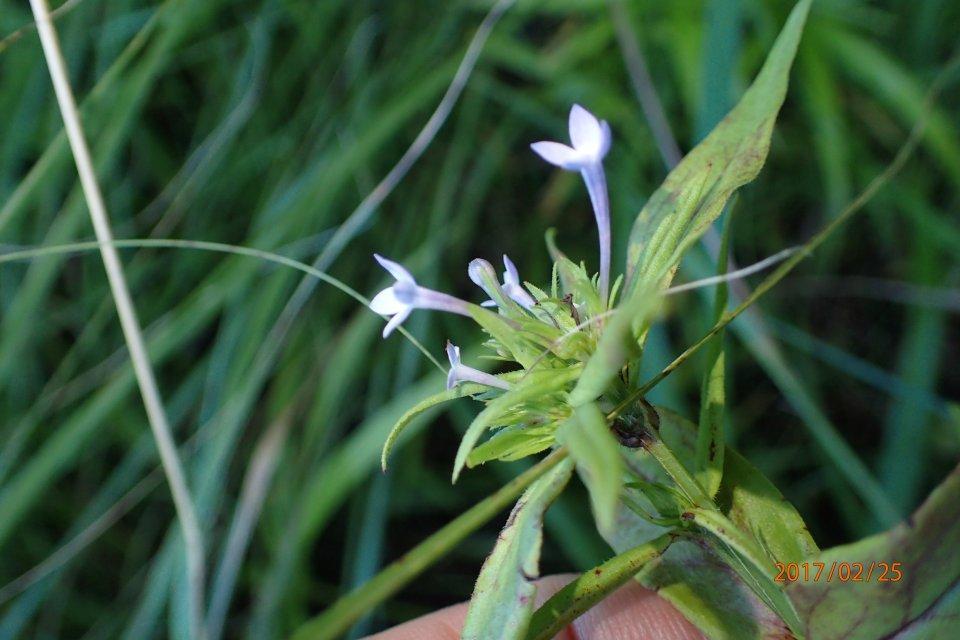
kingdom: Plantae
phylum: Tracheophyta
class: Magnoliopsida
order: Gentianales
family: Rubiaceae
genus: Conostomium
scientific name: Conostomium natalense
